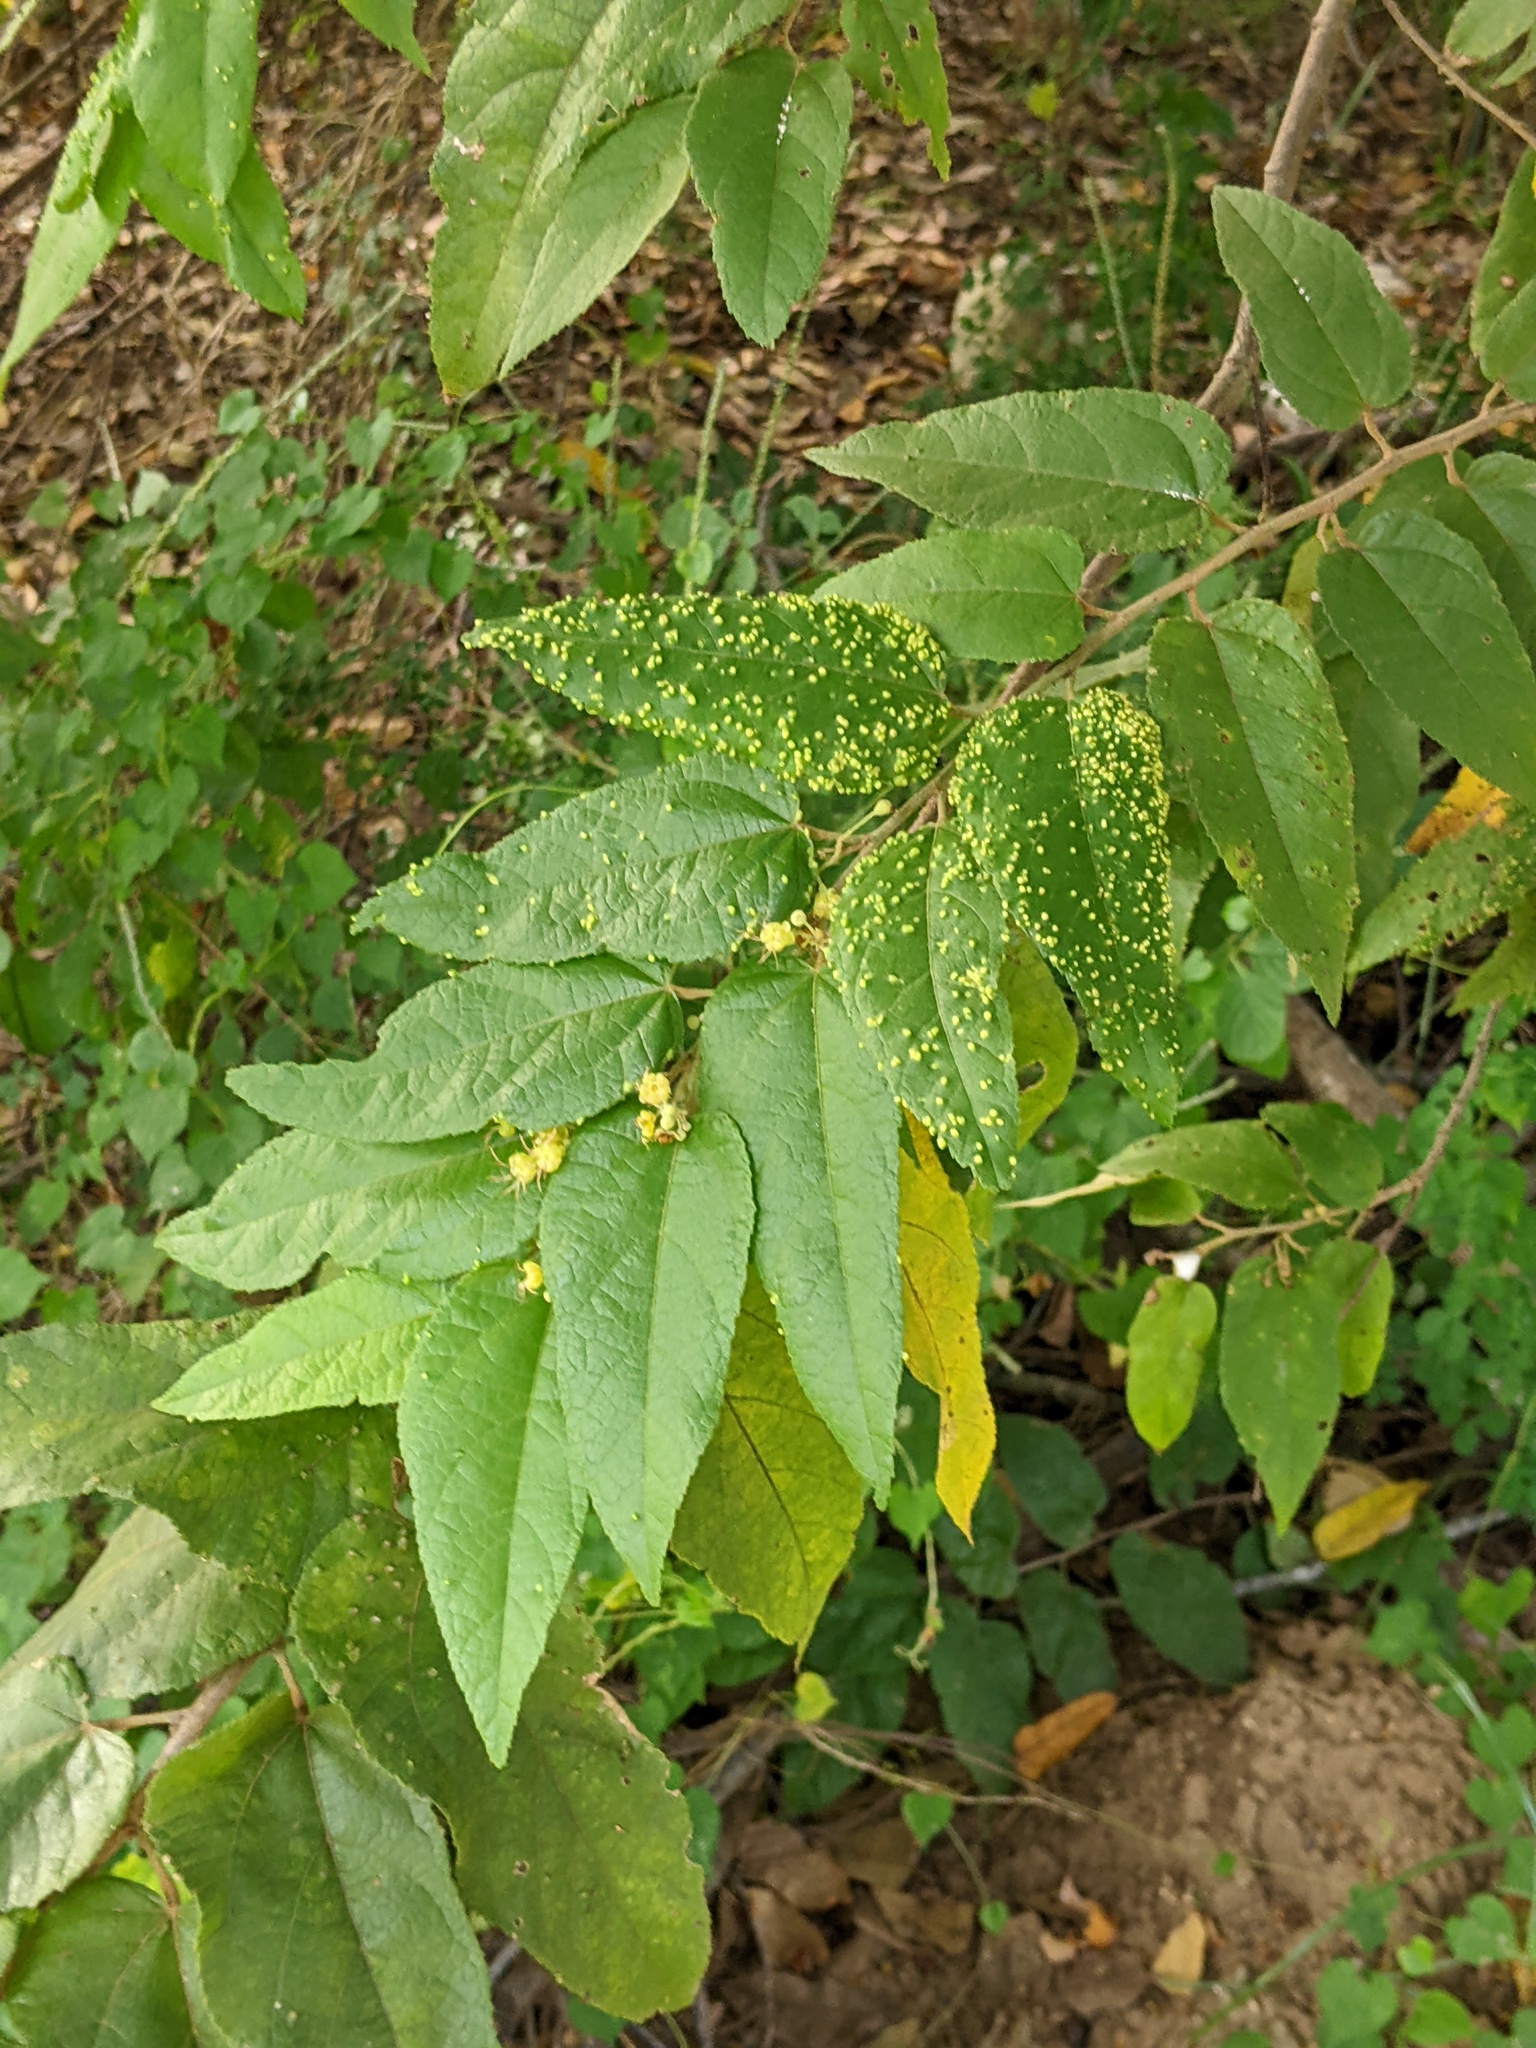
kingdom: Animalia
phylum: Arthropoda
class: Arachnida
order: Trombidiformes
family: Eriophyidae
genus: Aceria
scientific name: Aceria
